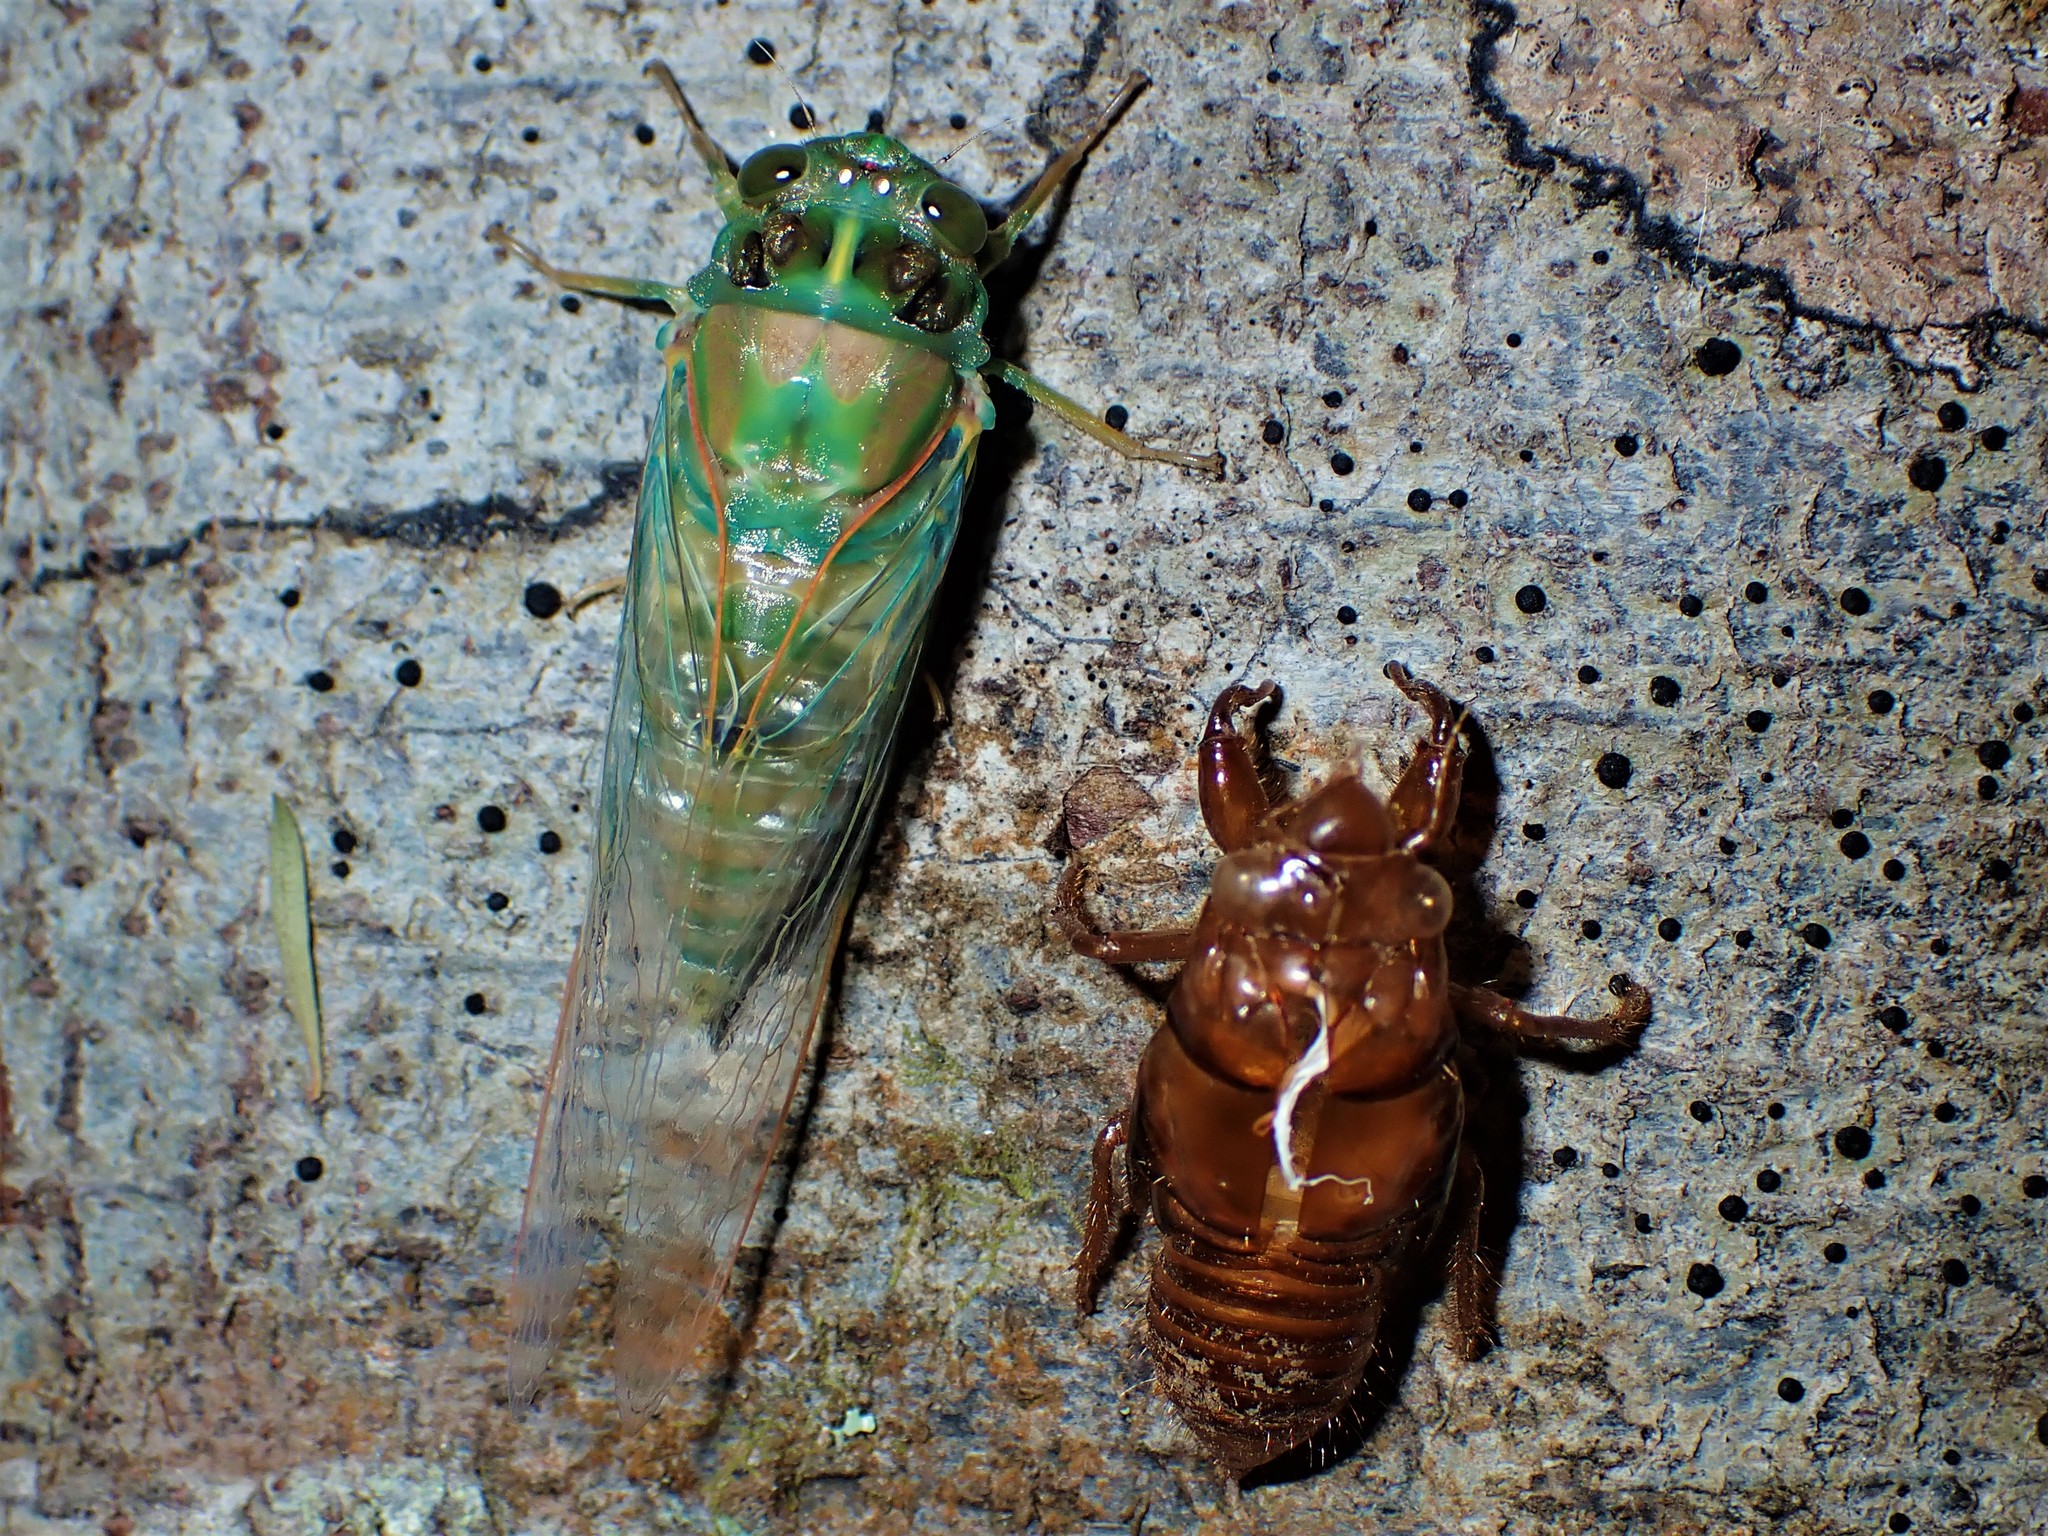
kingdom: Animalia
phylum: Arthropoda
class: Insecta
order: Hemiptera
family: Cicadidae
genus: Amphipsalta
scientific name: Amphipsalta zelandica
